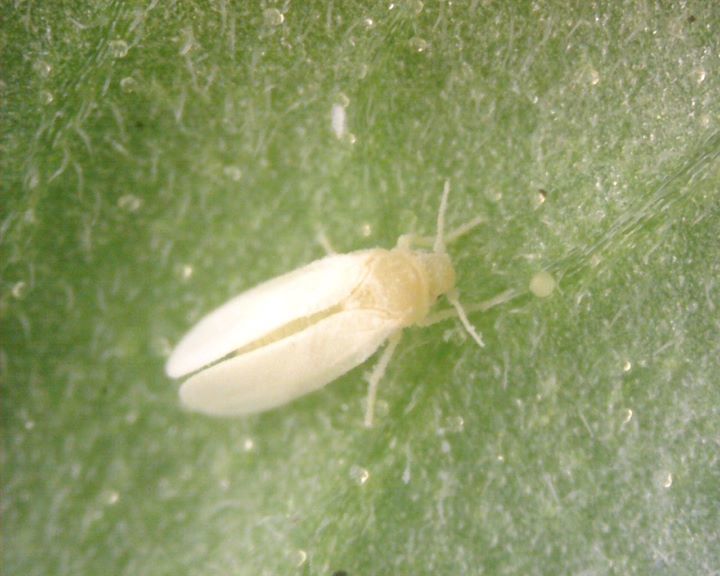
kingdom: Animalia
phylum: Arthropoda
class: Insecta
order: Hemiptera
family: Aleyrodidae
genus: Bemisia
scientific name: Bemisia tabaci
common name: Sweetpotato whitefly
